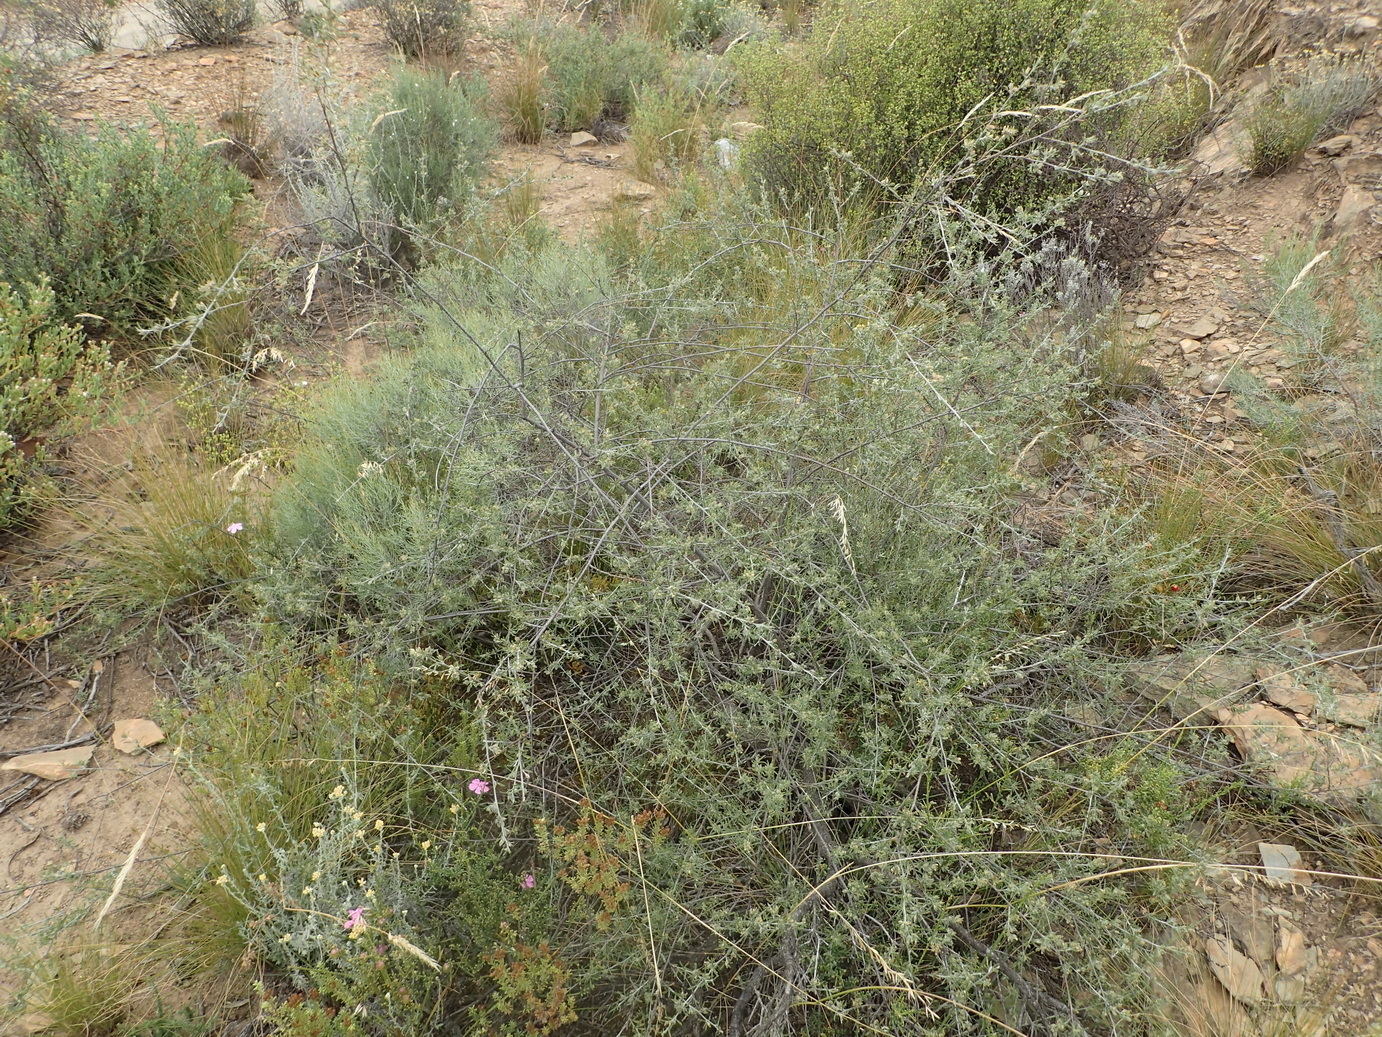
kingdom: Plantae
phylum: Tracheophyta
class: Magnoliopsida
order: Fabales
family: Fabaceae
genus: Psoralea
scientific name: Psoralea candicans
